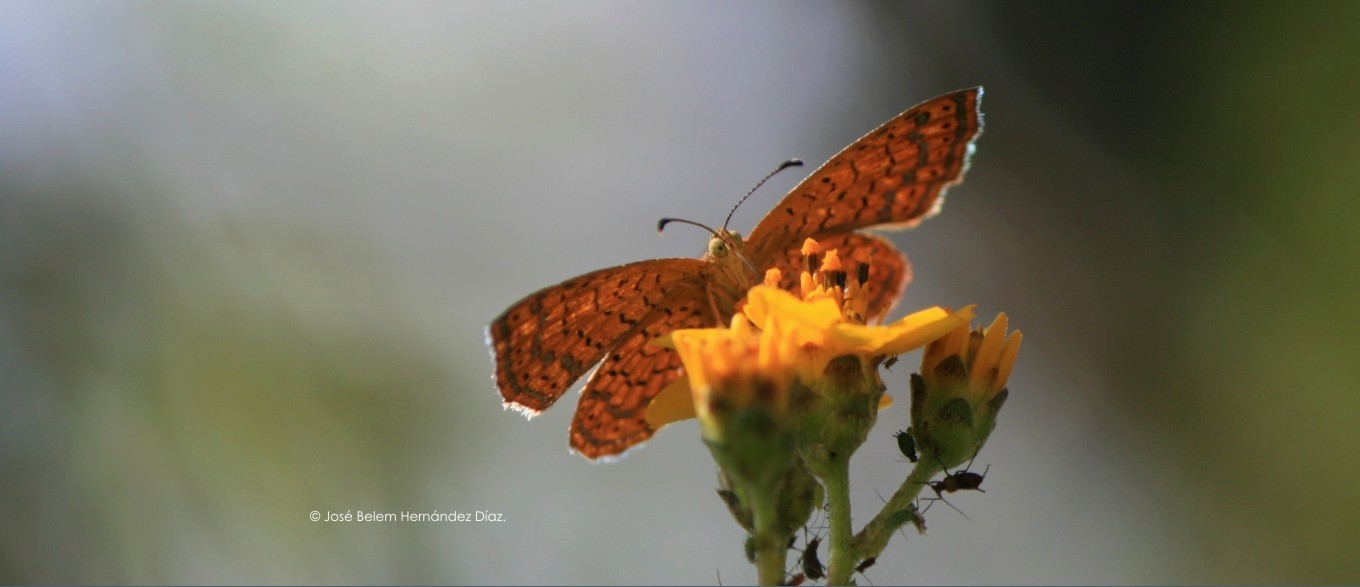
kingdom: Animalia
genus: Calephelis
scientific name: Calephelis
